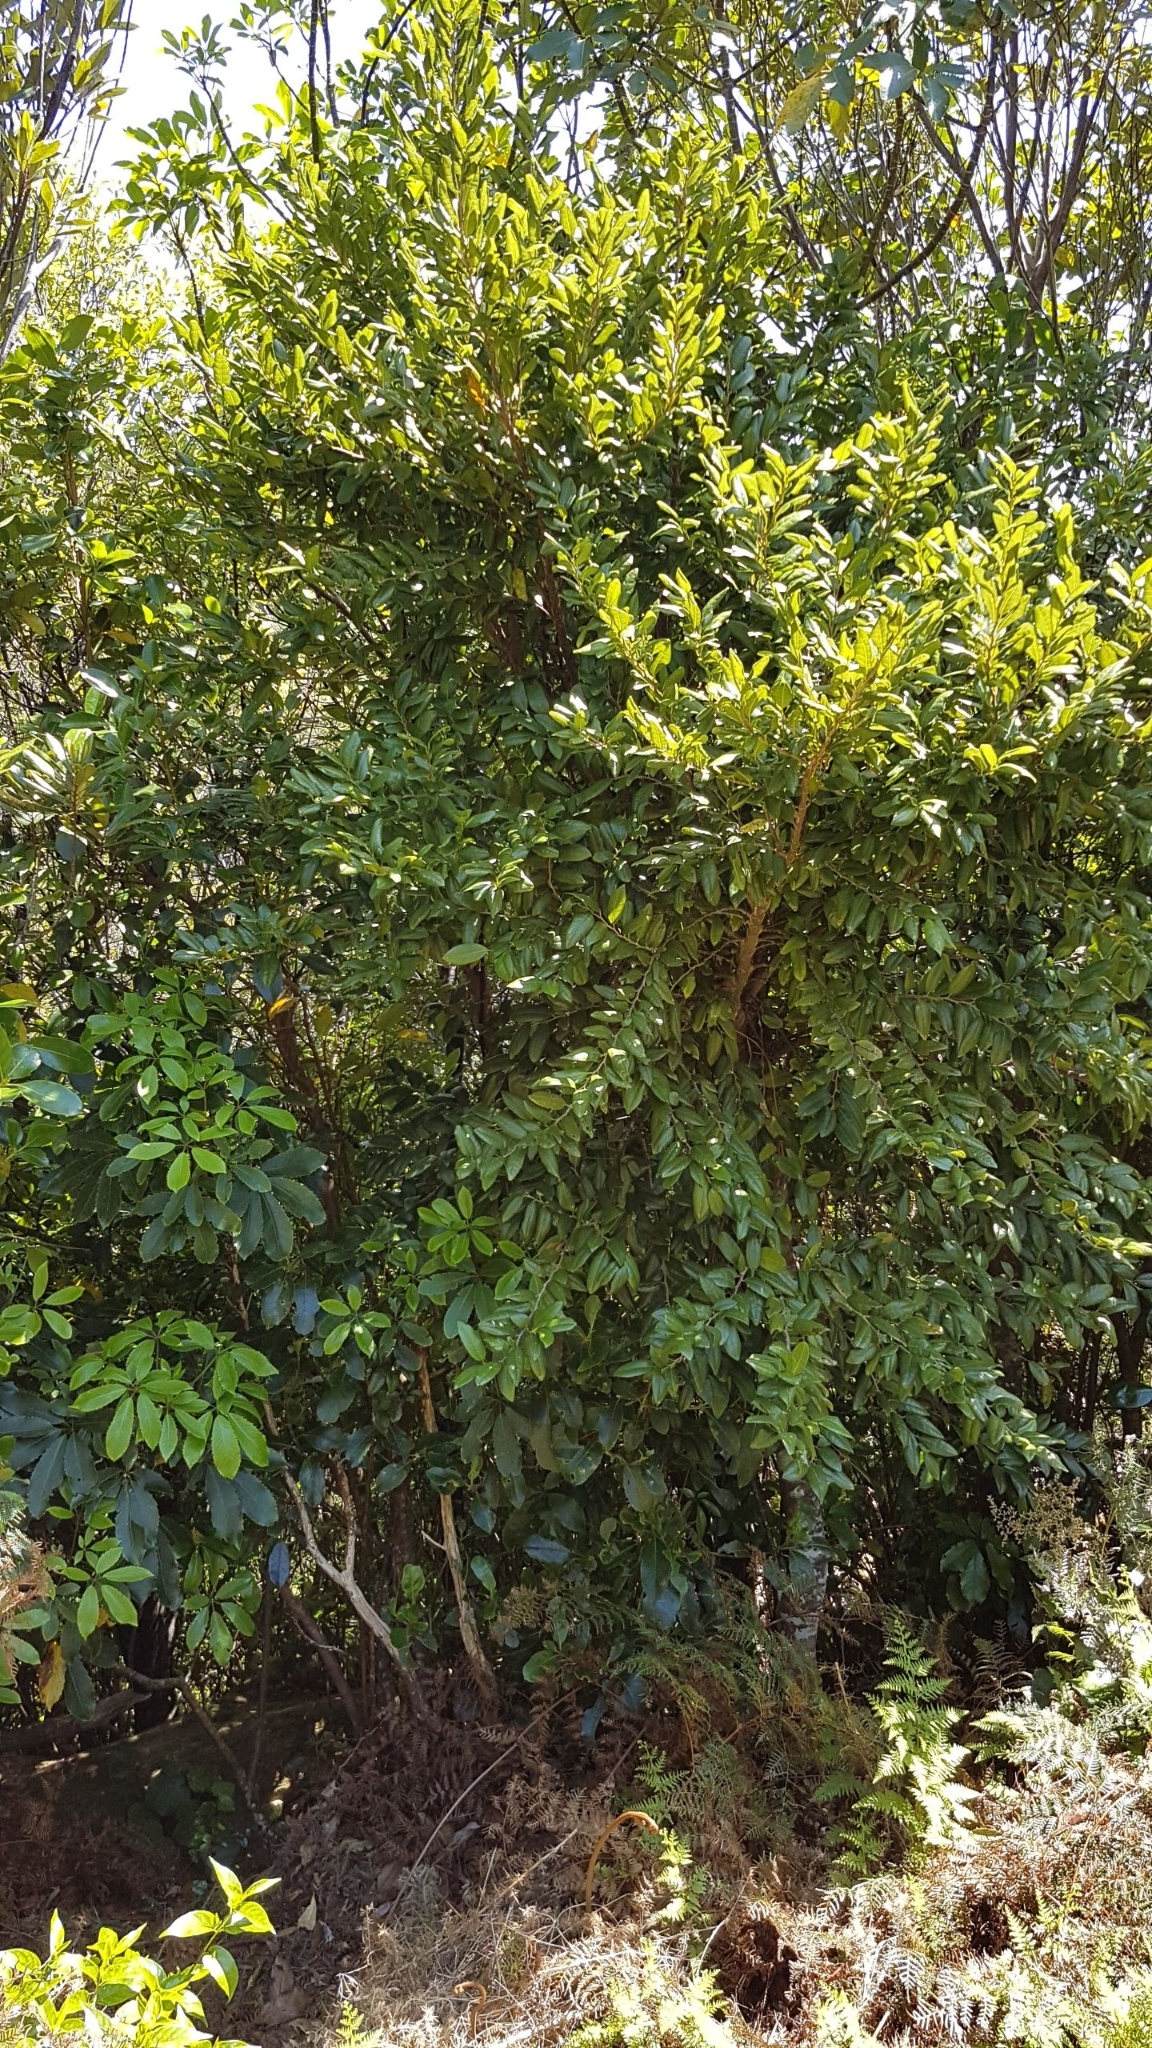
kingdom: Plantae
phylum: Tracheophyta
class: Magnoliopsida
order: Rosales
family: Moraceae
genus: Paratrophis
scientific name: Paratrophis banksii
